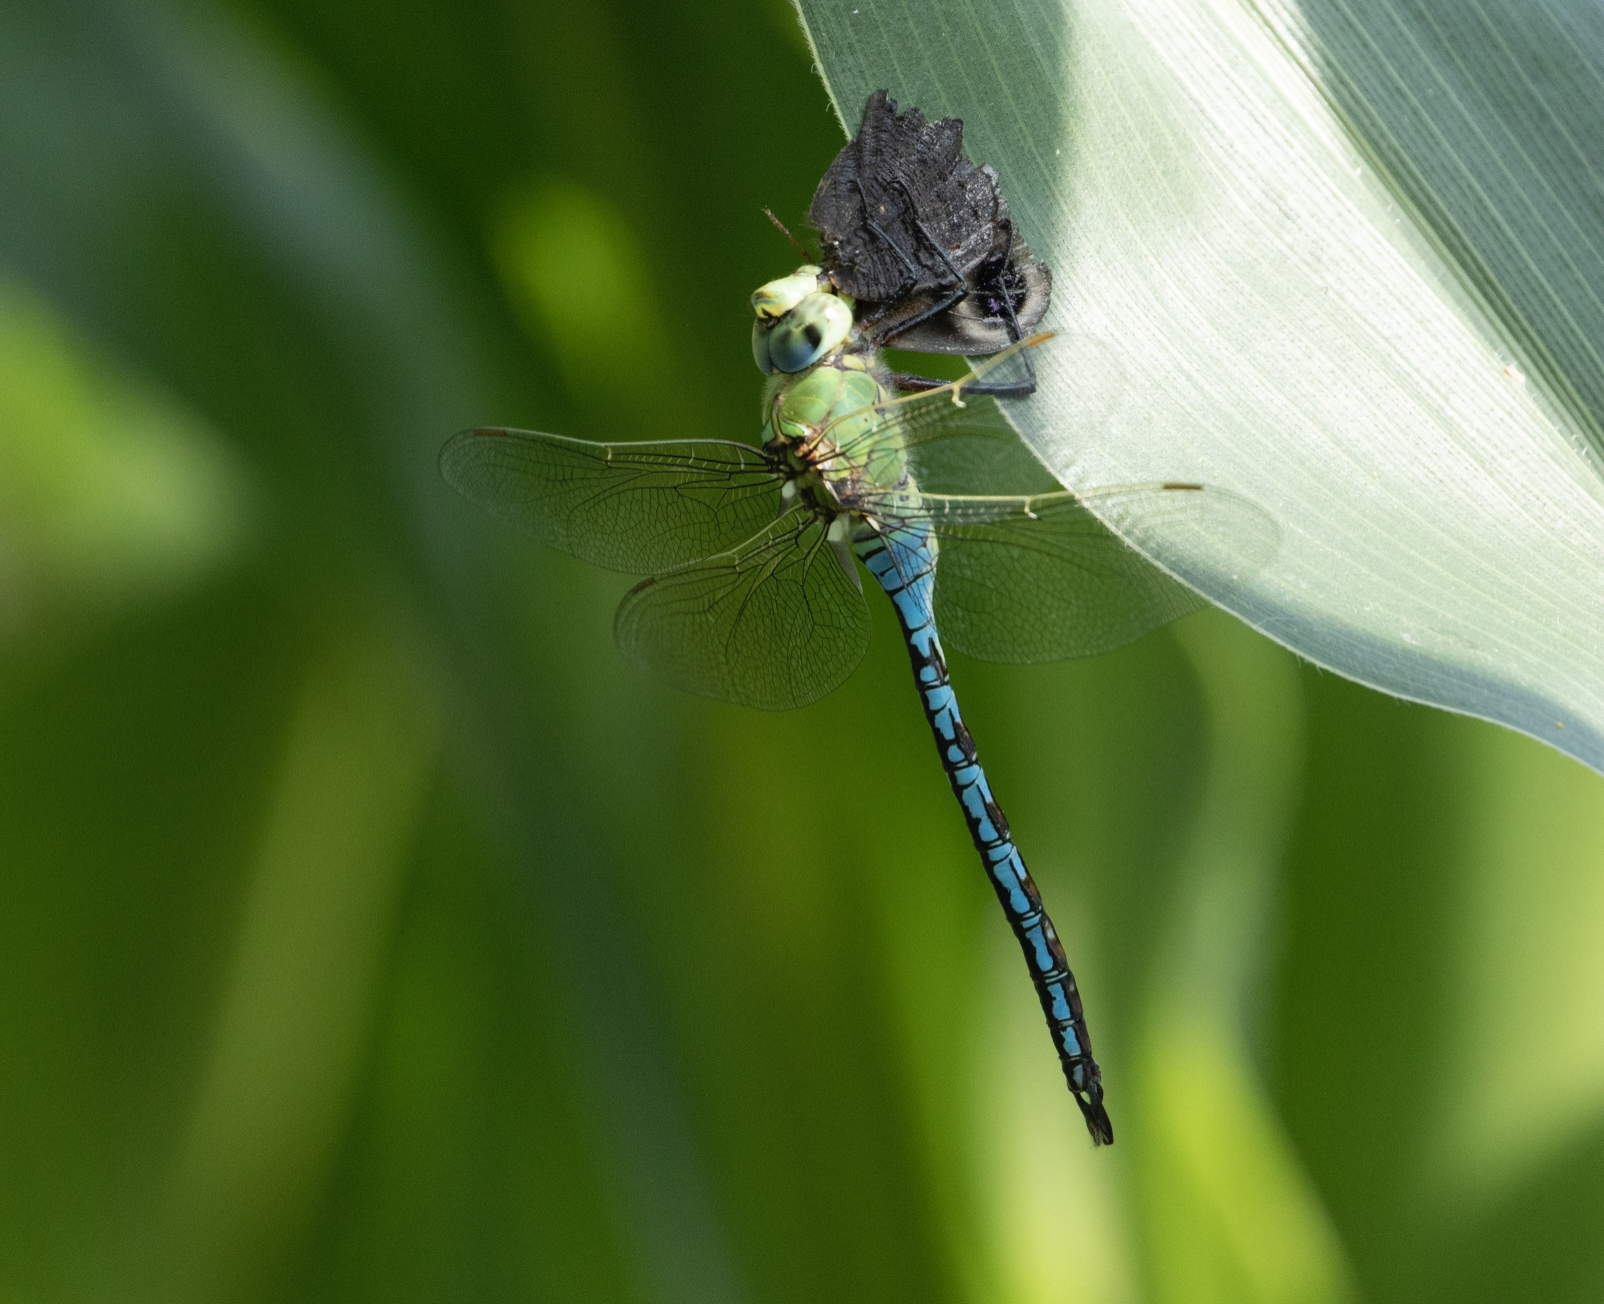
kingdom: Animalia
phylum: Arthropoda
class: Insecta
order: Odonata
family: Aeshnidae
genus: Anax
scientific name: Anax imperator
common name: Emperor dragonfly
